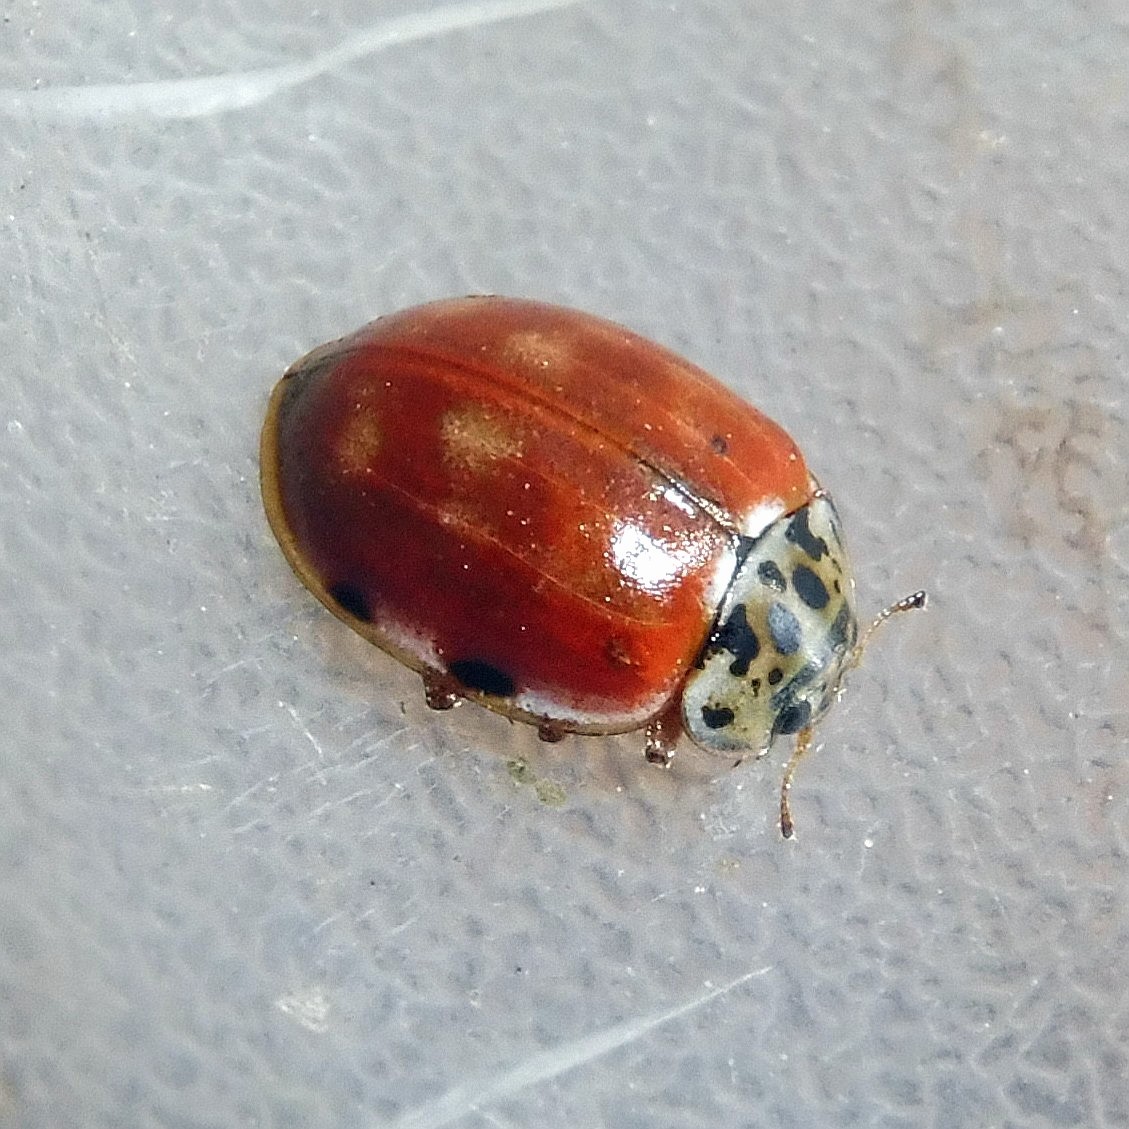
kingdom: Animalia
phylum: Arthropoda
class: Insecta
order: Coleoptera
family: Coccinellidae
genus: Harmonia
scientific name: Harmonia quadripunctata
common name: Cream-streaked ladybird
